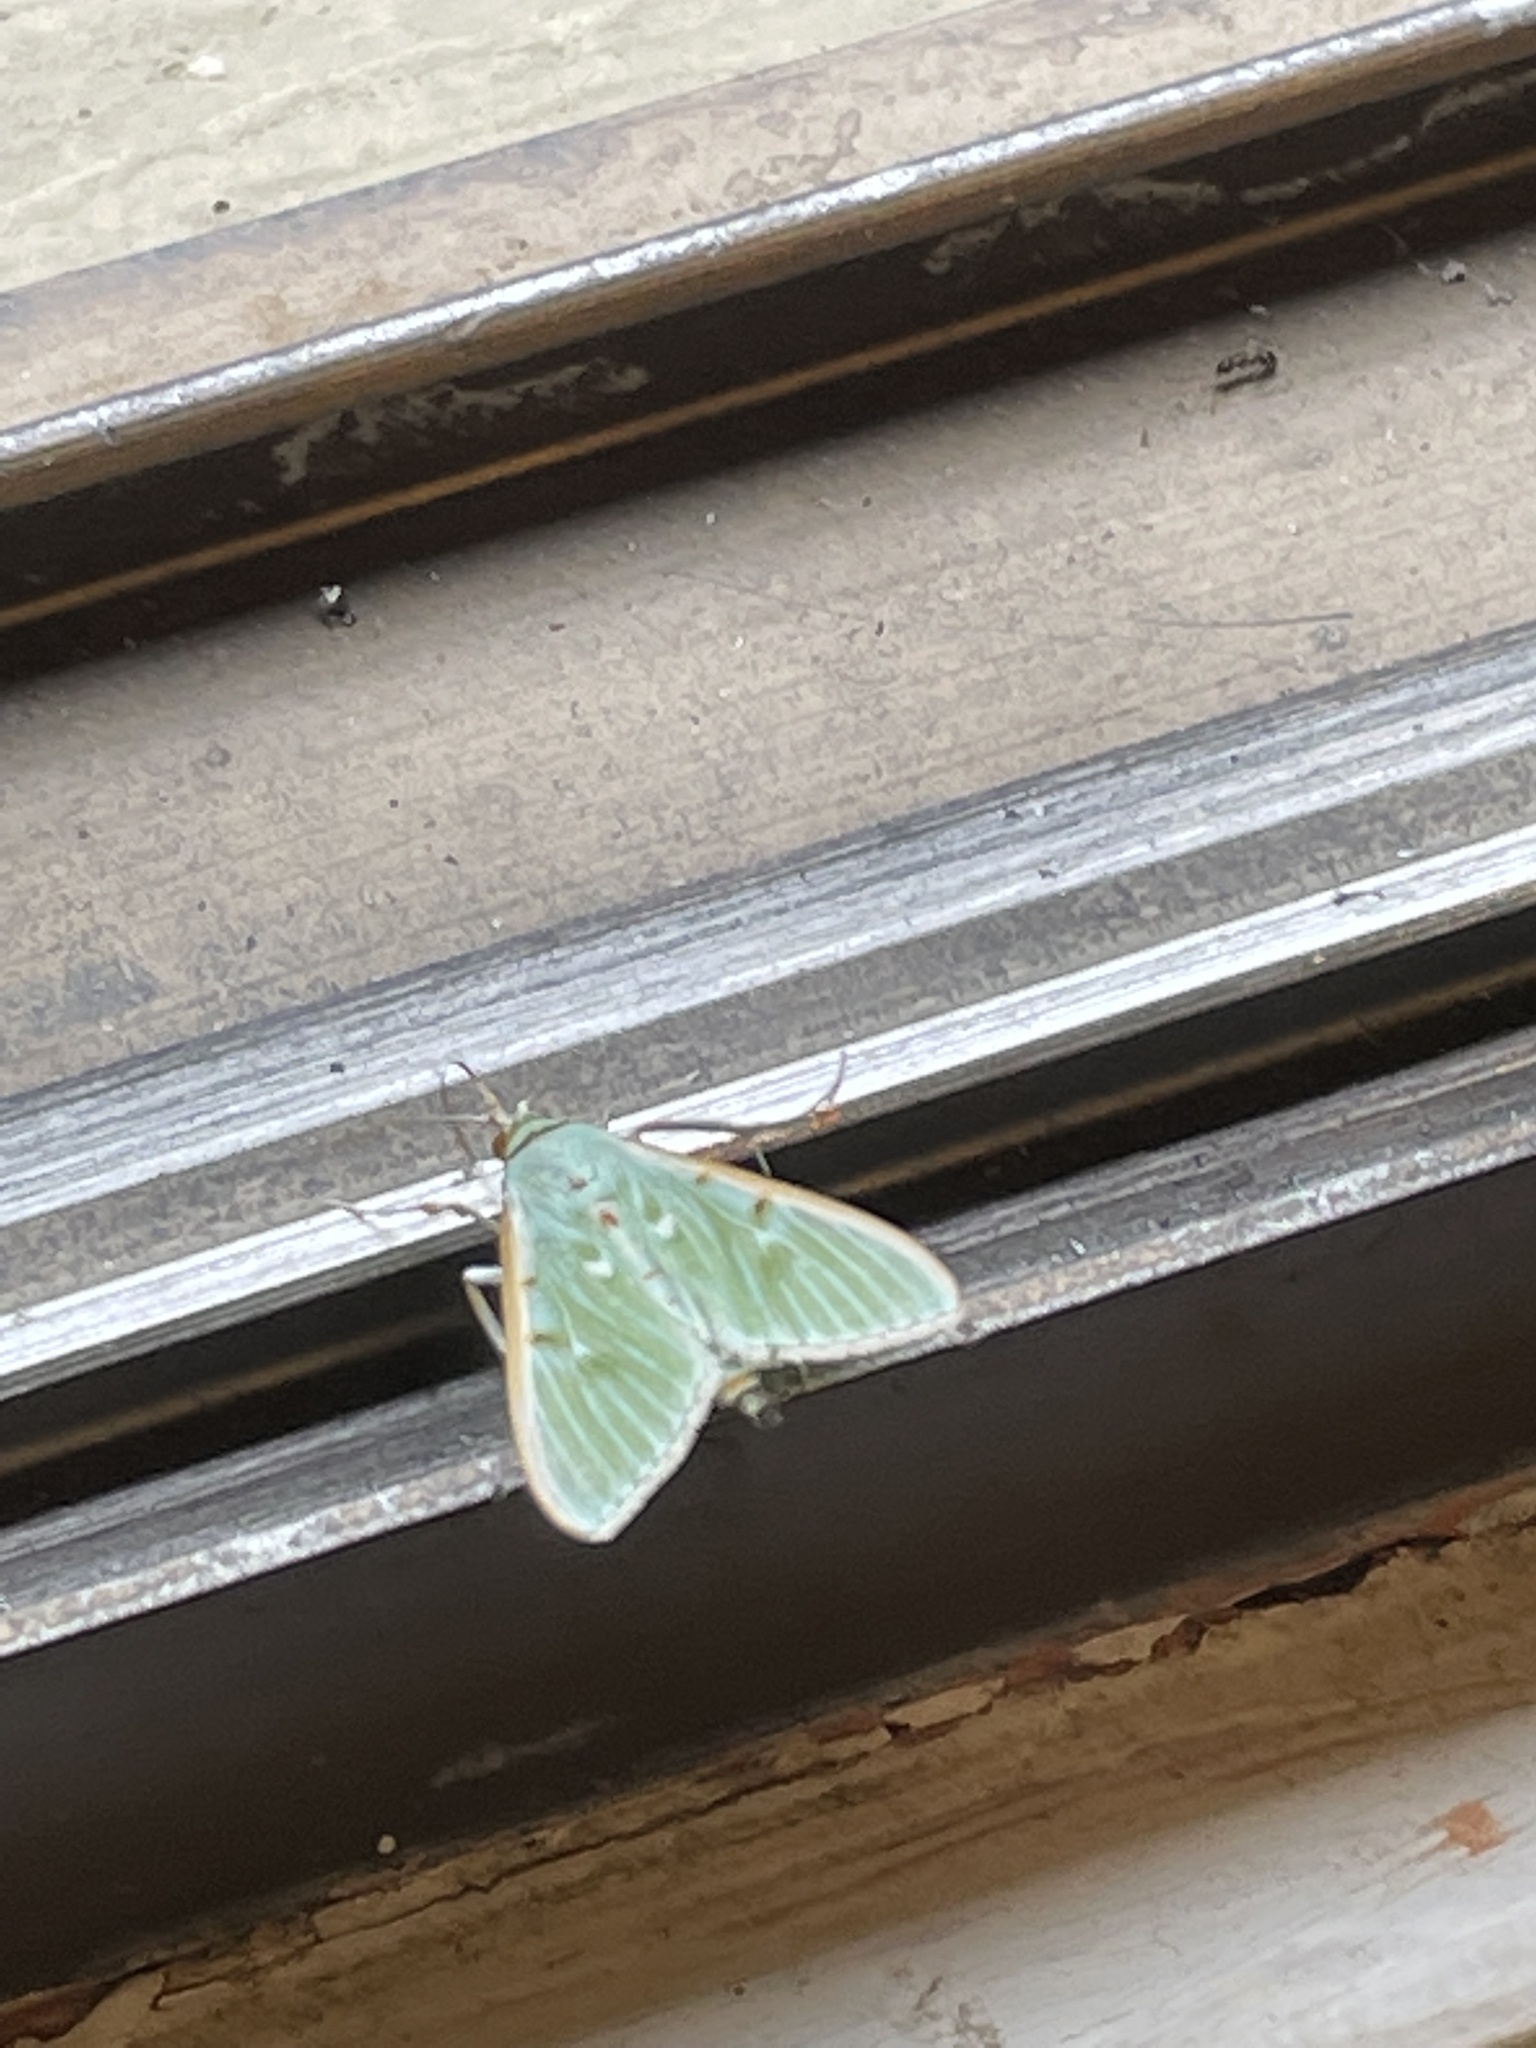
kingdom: Animalia
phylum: Arthropoda
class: Insecta
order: Lepidoptera
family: Crambidae
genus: Arthroschista
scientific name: Arthroschista hilaralis
